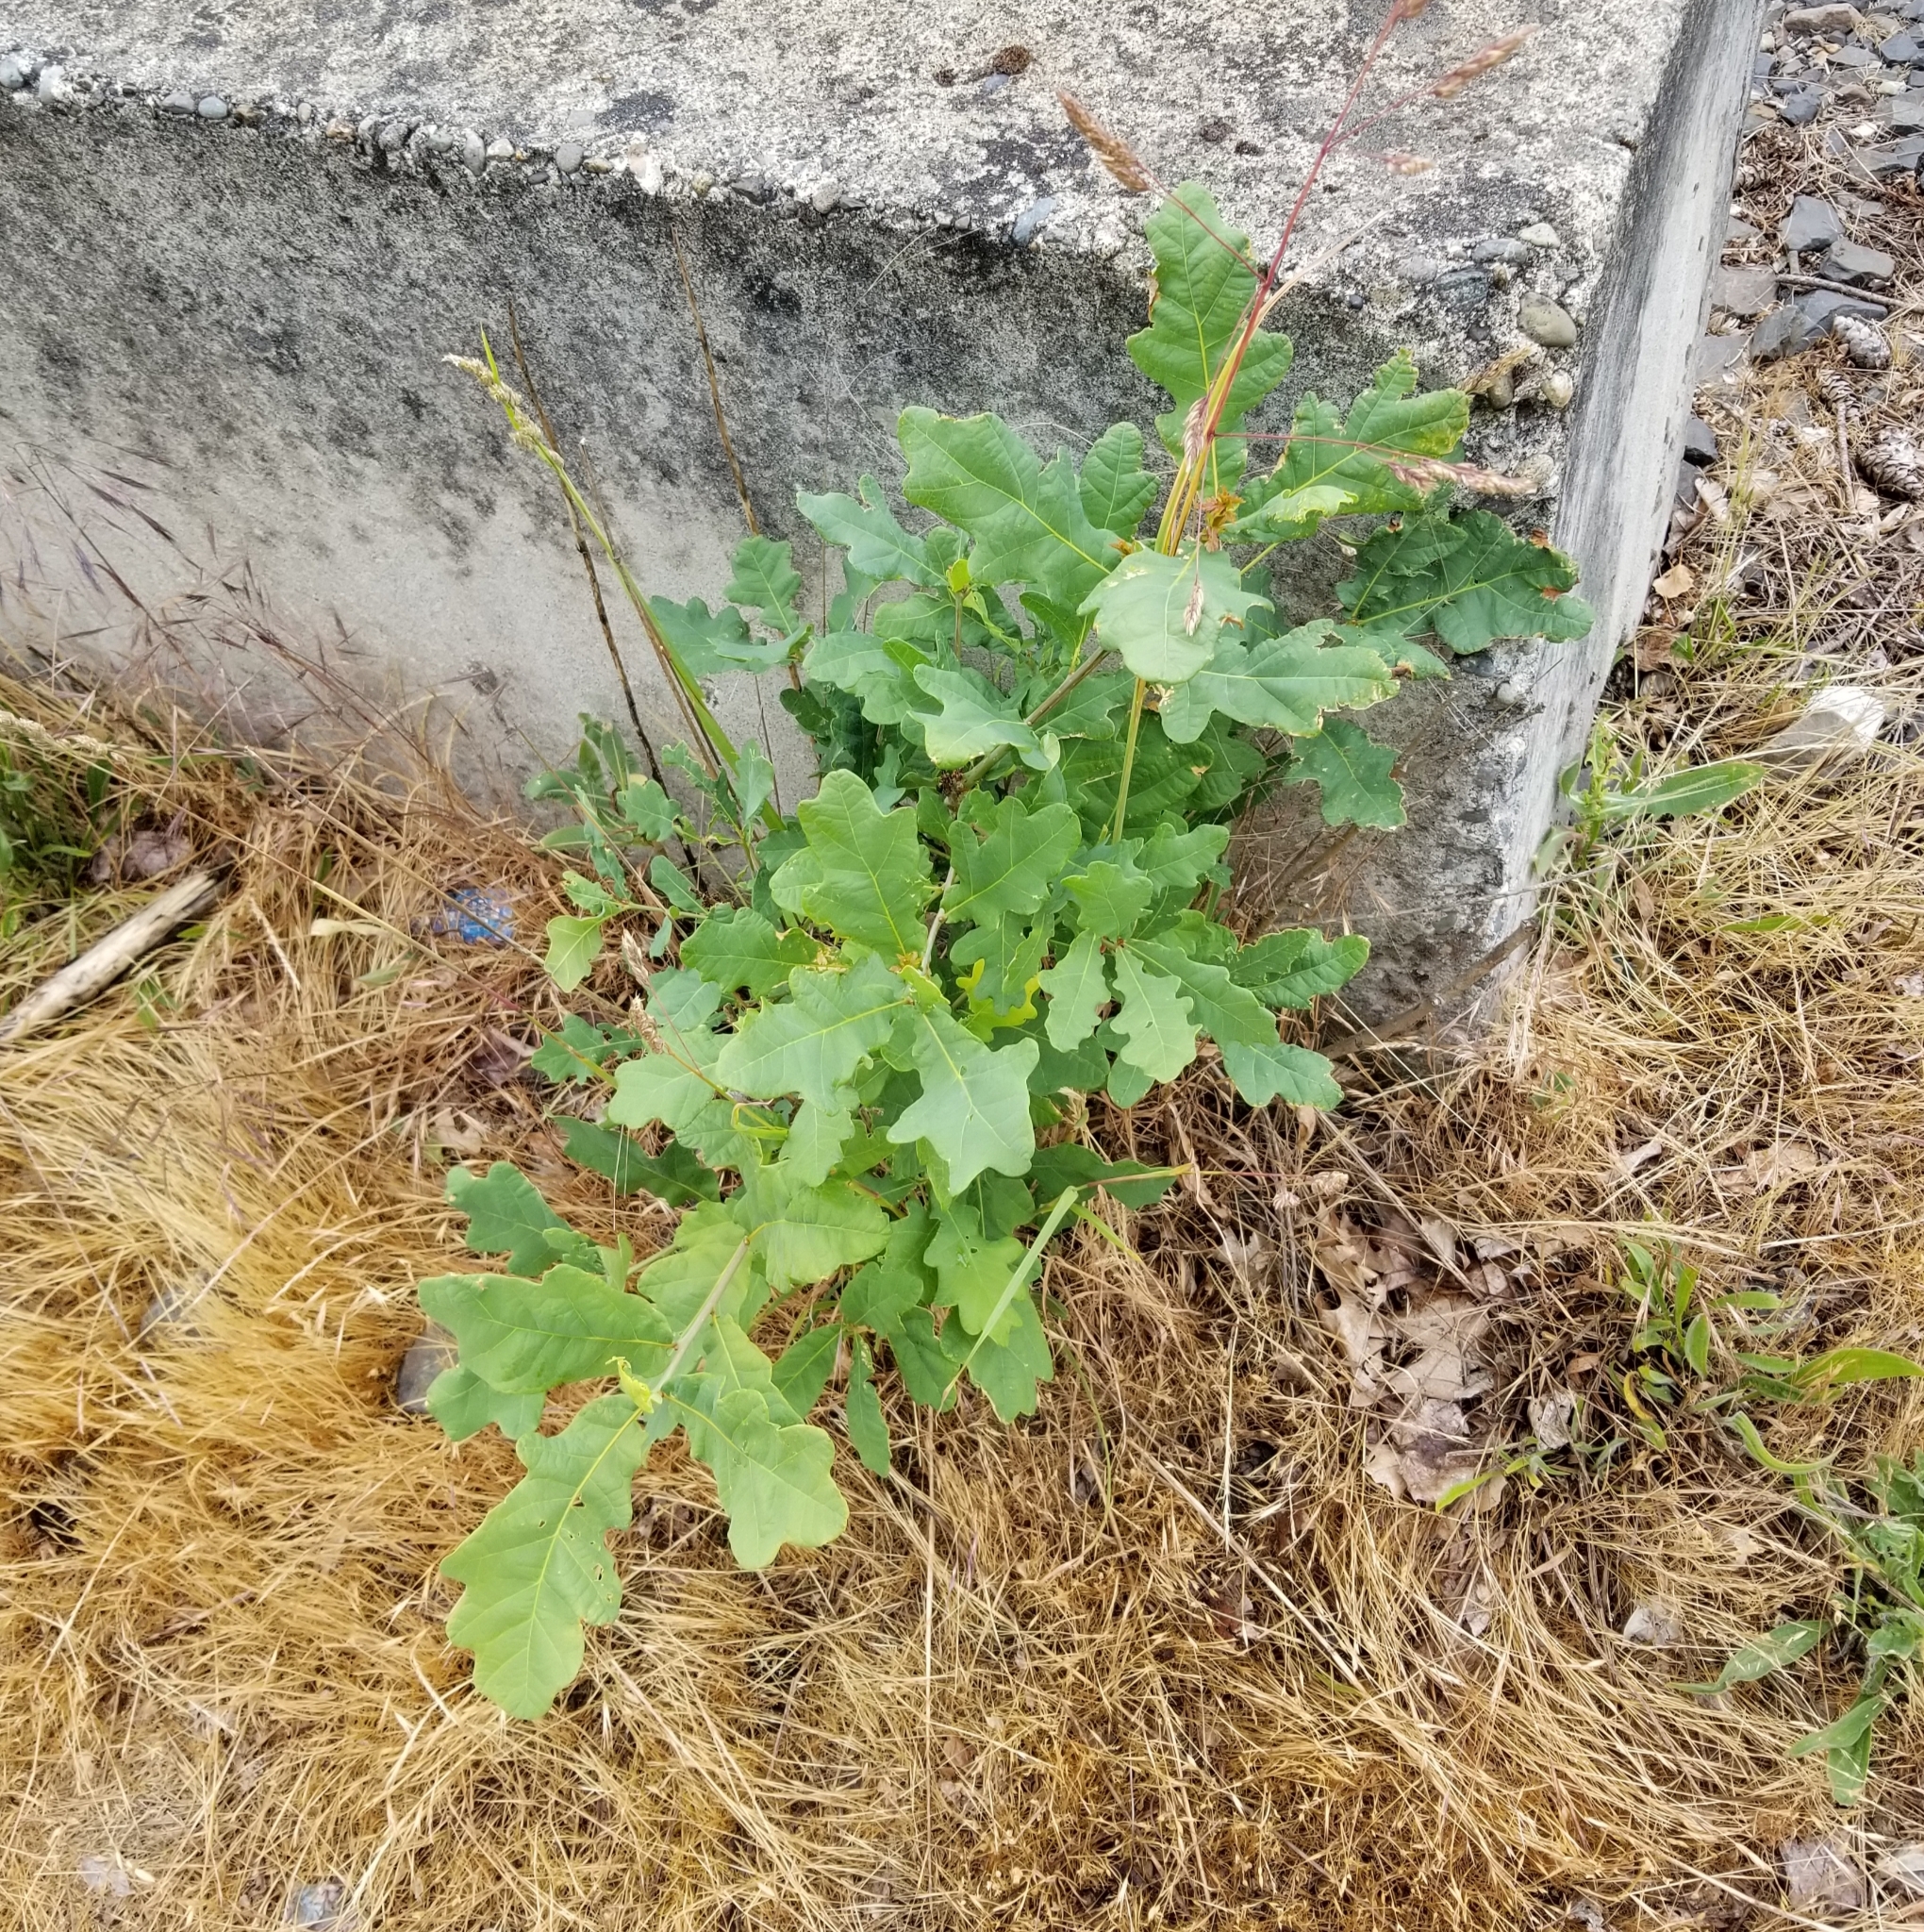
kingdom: Plantae
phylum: Tracheophyta
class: Magnoliopsida
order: Fagales
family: Fagaceae
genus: Quercus
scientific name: Quercus robur
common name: Pedunculate oak
